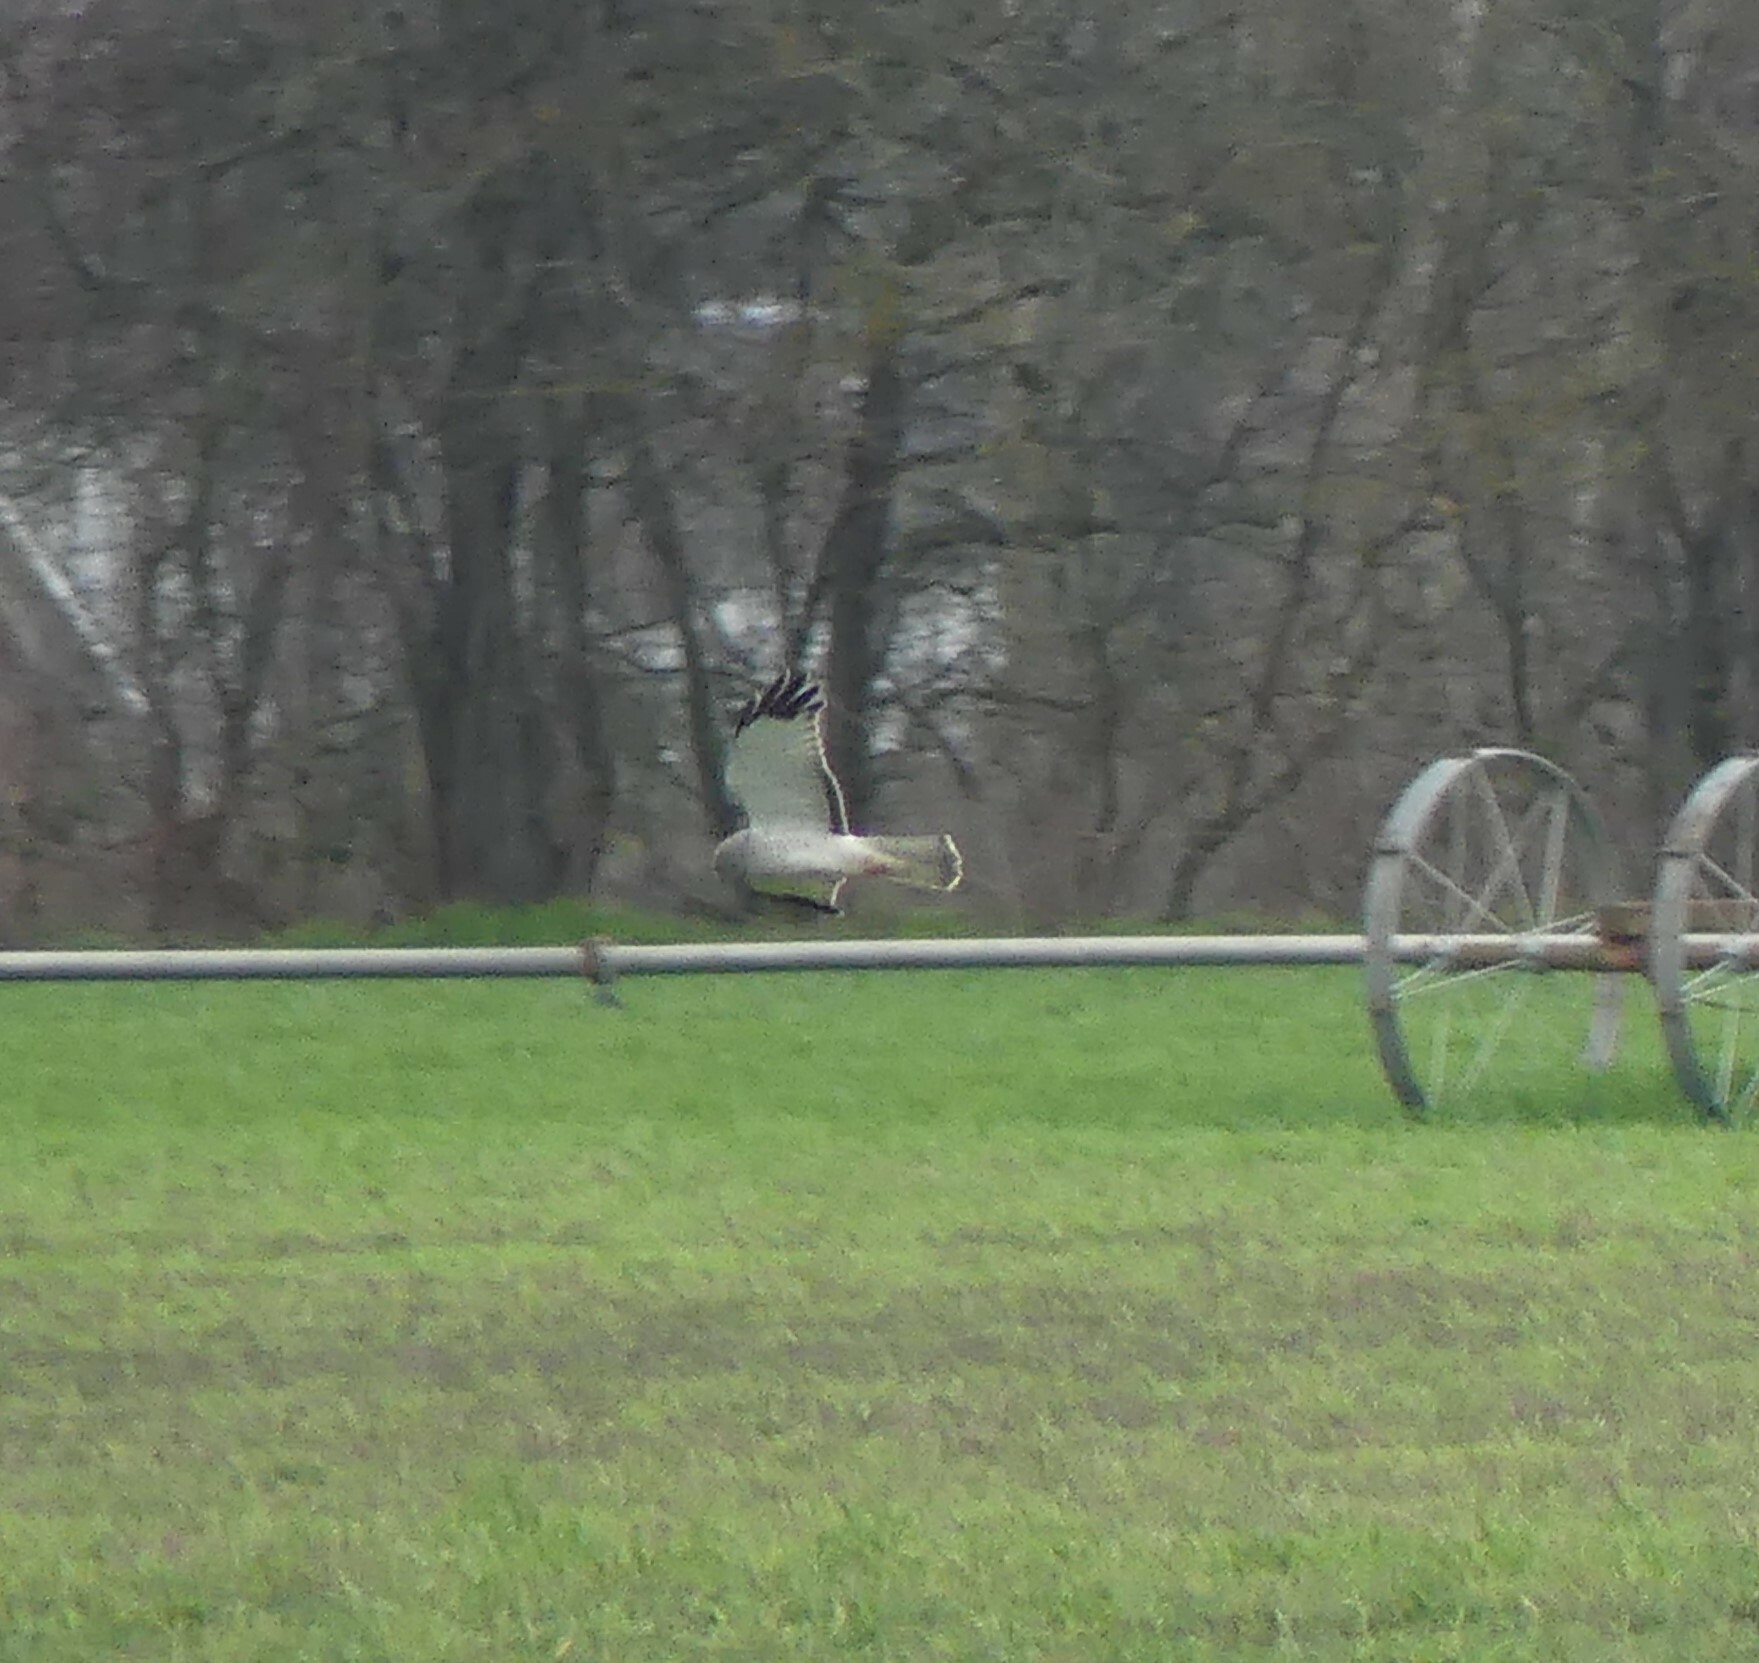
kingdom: Animalia
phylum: Chordata
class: Aves
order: Accipitriformes
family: Accipitridae
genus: Circus
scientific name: Circus cyaneus
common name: Hen harrier
